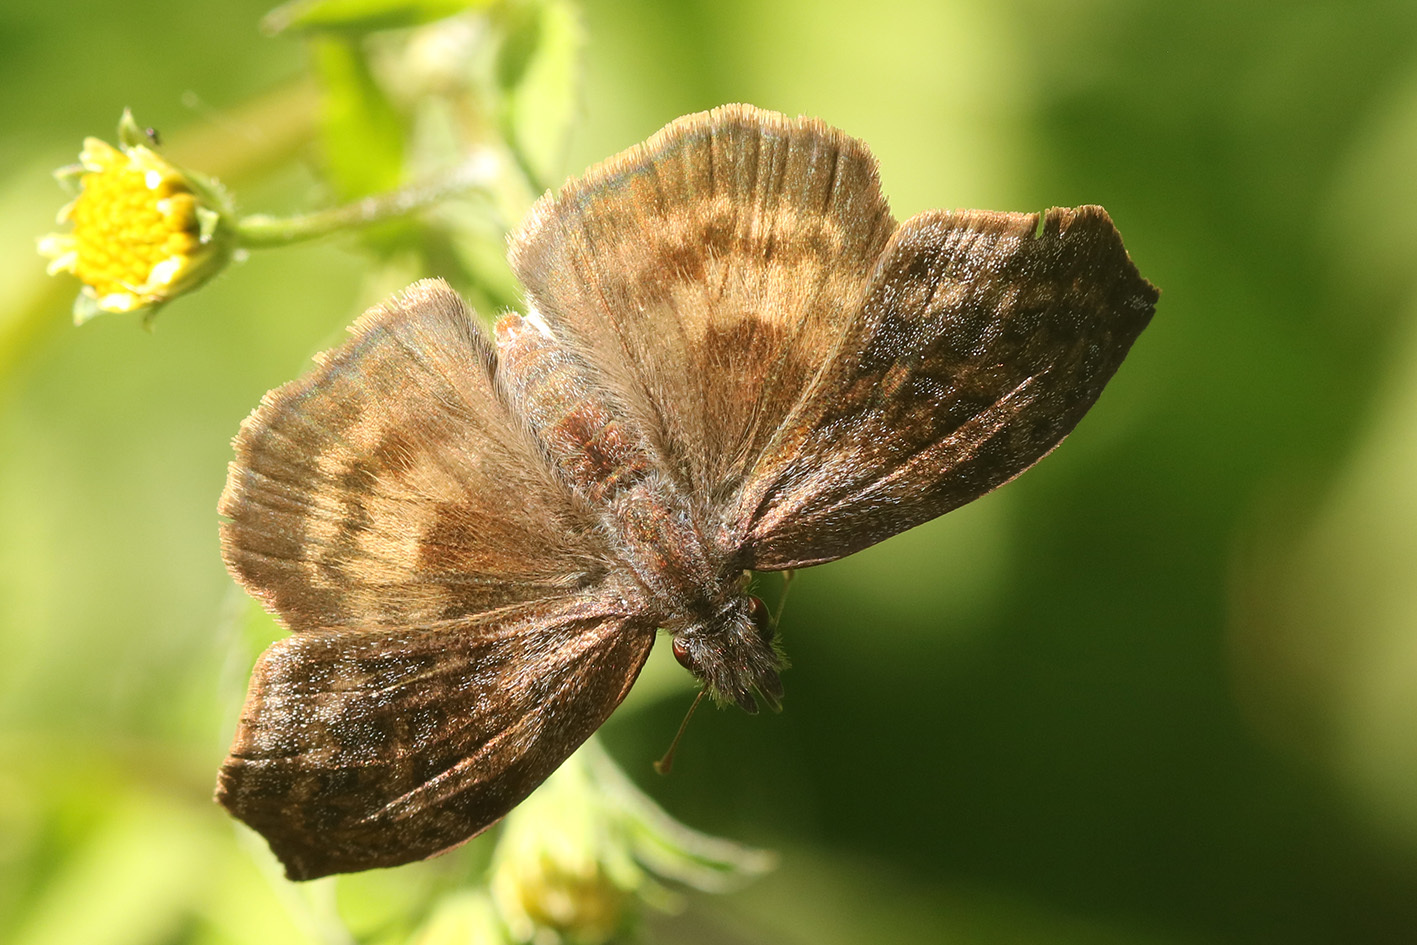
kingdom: Animalia
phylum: Arthropoda
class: Insecta
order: Lepidoptera
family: Hesperiidae
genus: Theagenes
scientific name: Theagenes dichrous
